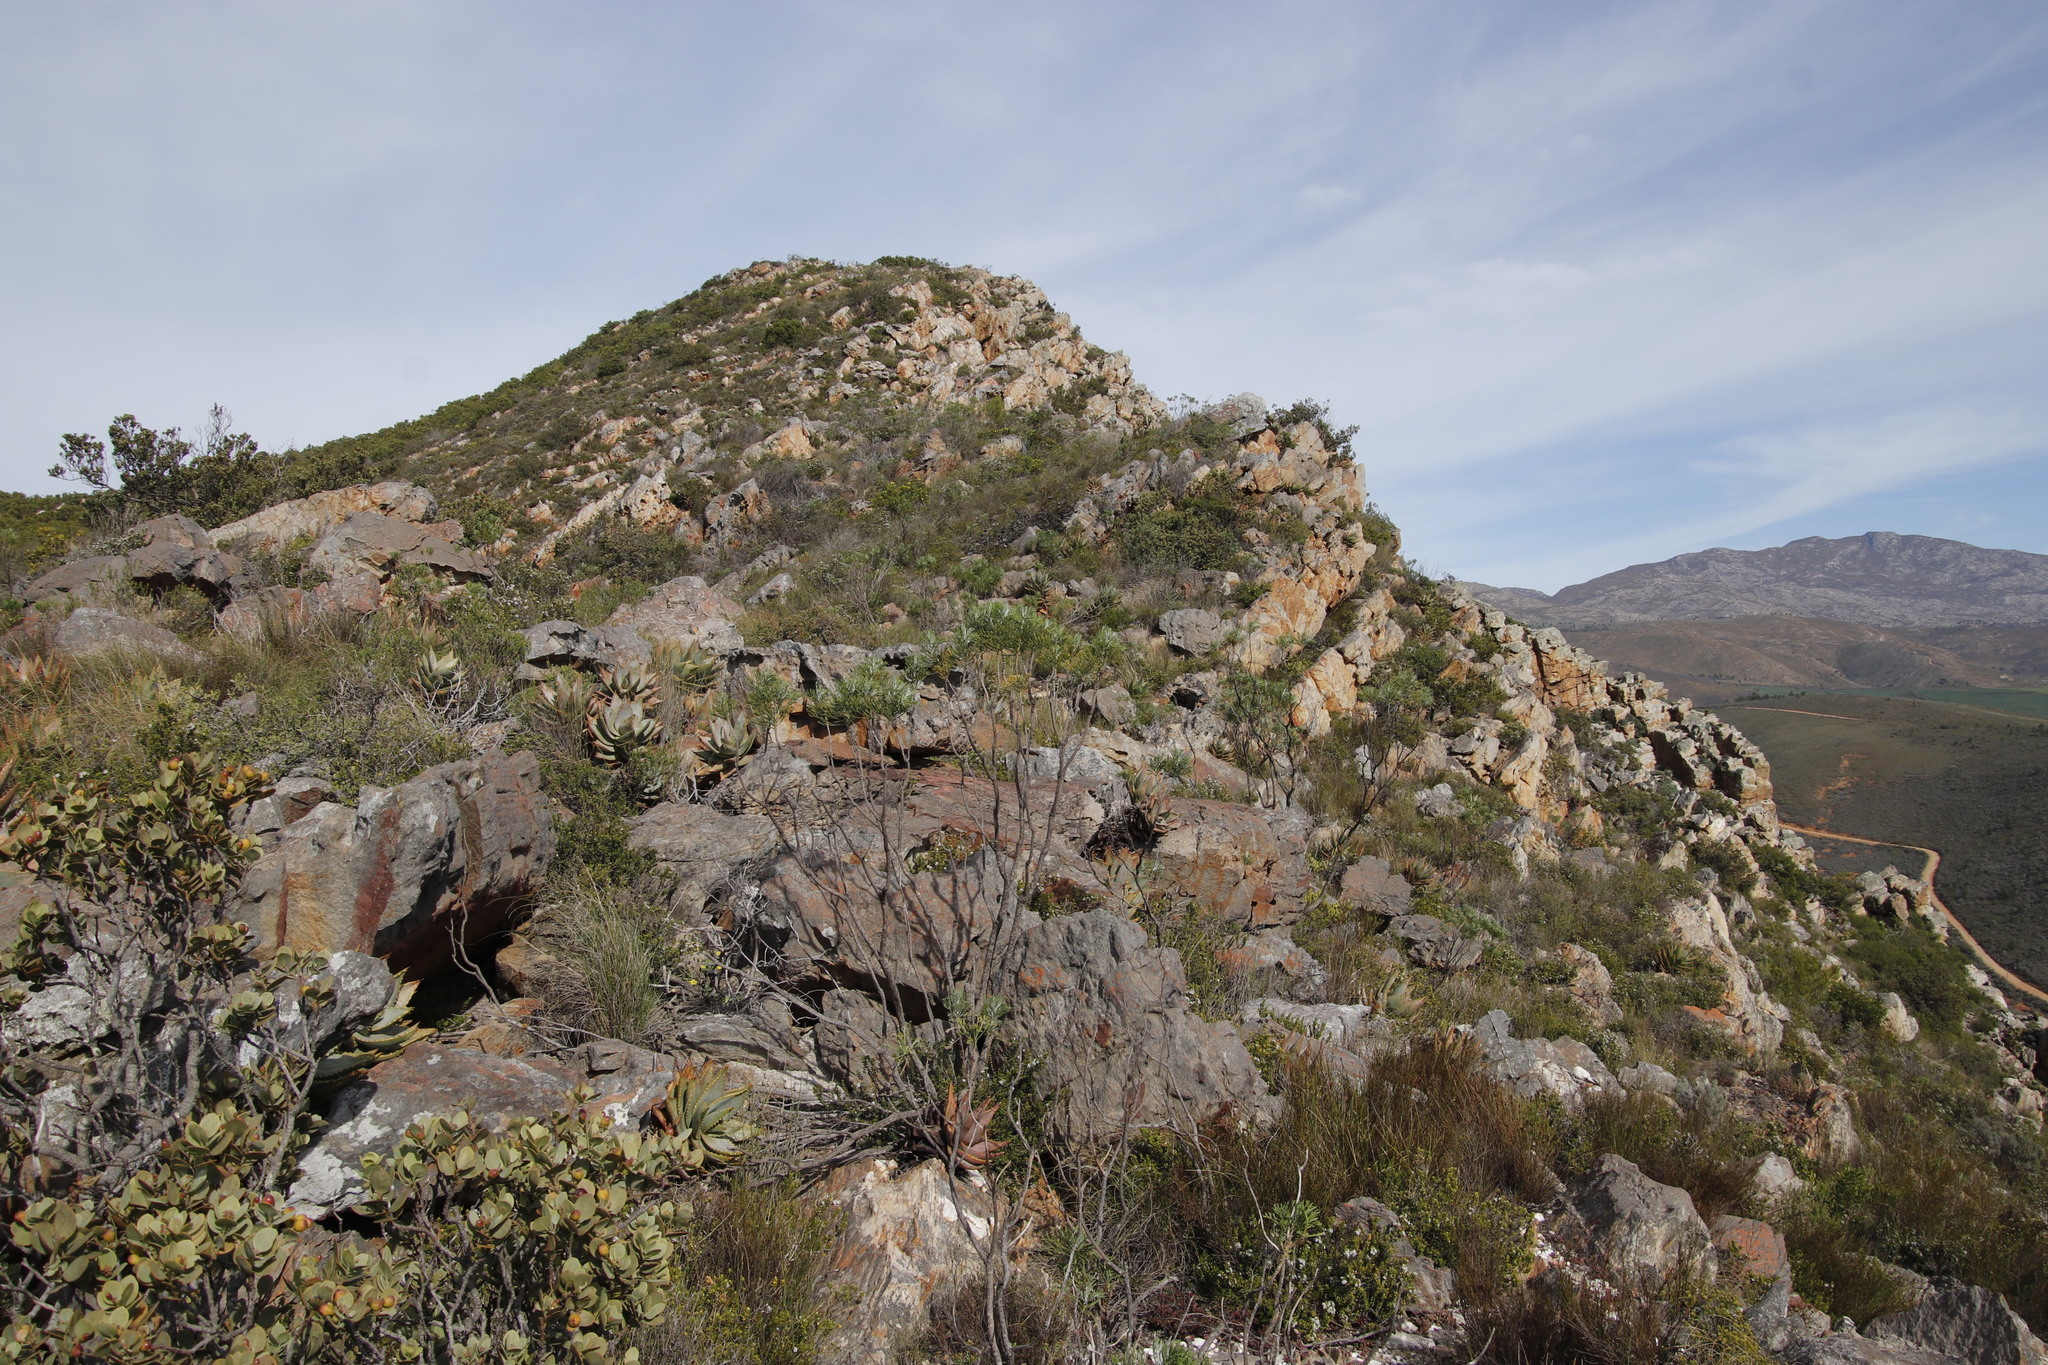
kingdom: Plantae
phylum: Tracheophyta
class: Magnoliopsida
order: Asterales
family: Asteraceae
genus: Hymenolepis
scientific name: Hymenolepis crithmifolia
